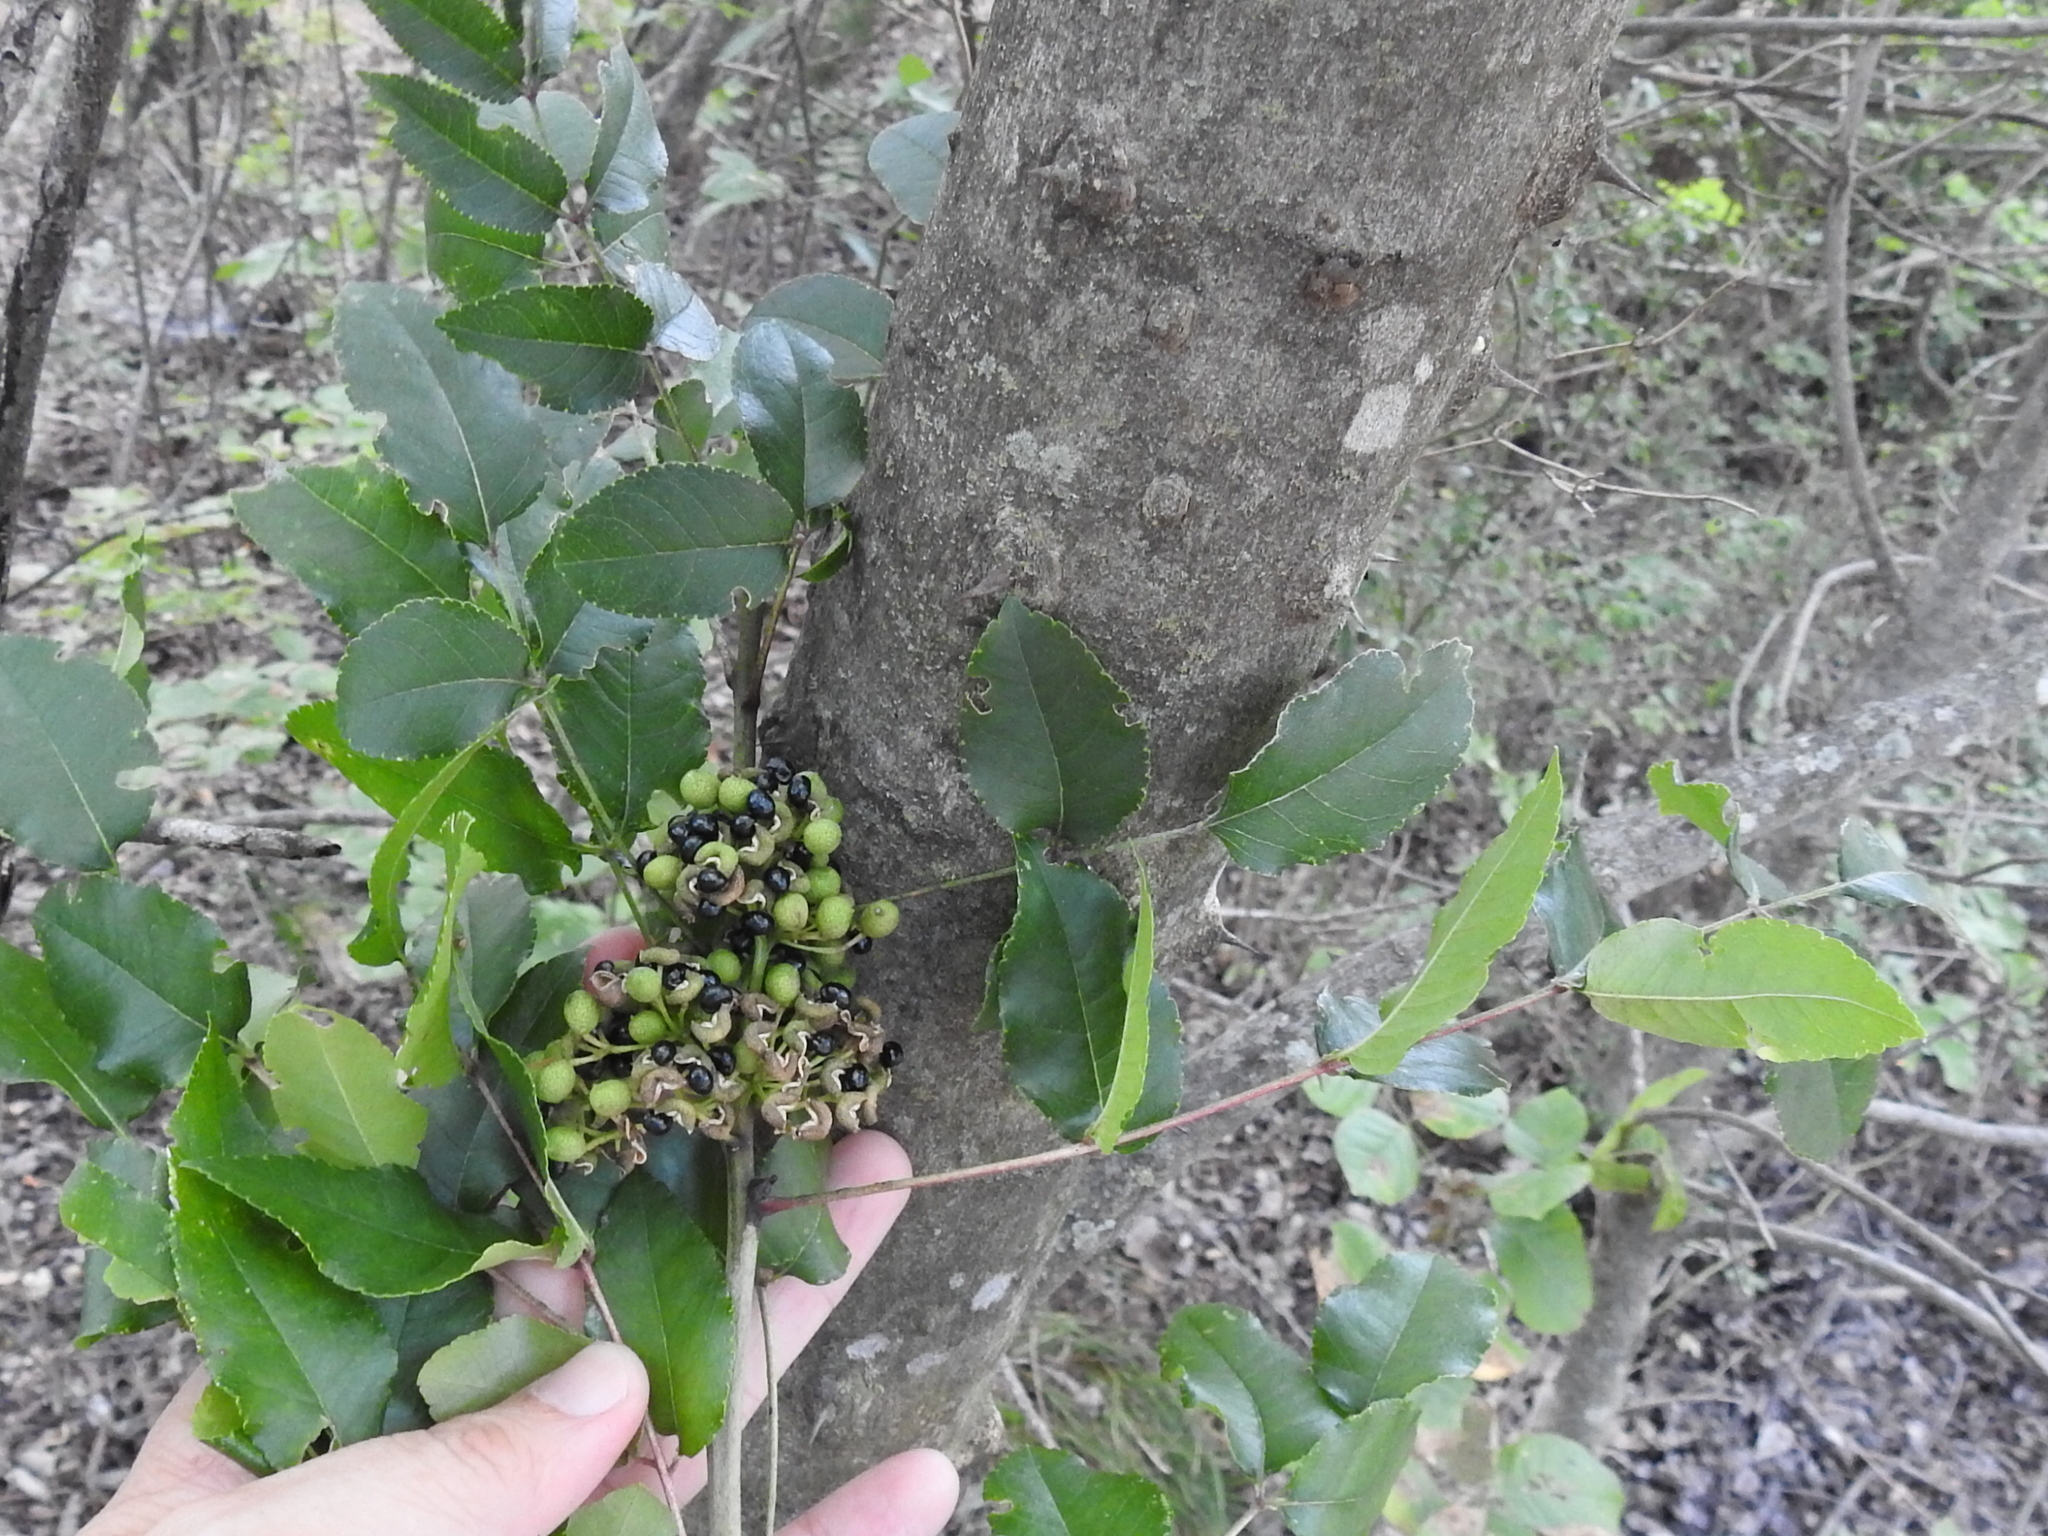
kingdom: Plantae
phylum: Tracheophyta
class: Magnoliopsida
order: Sapindales
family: Rutaceae
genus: Zanthoxylum
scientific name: Zanthoxylum clava-herculis
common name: Hercules'-club
